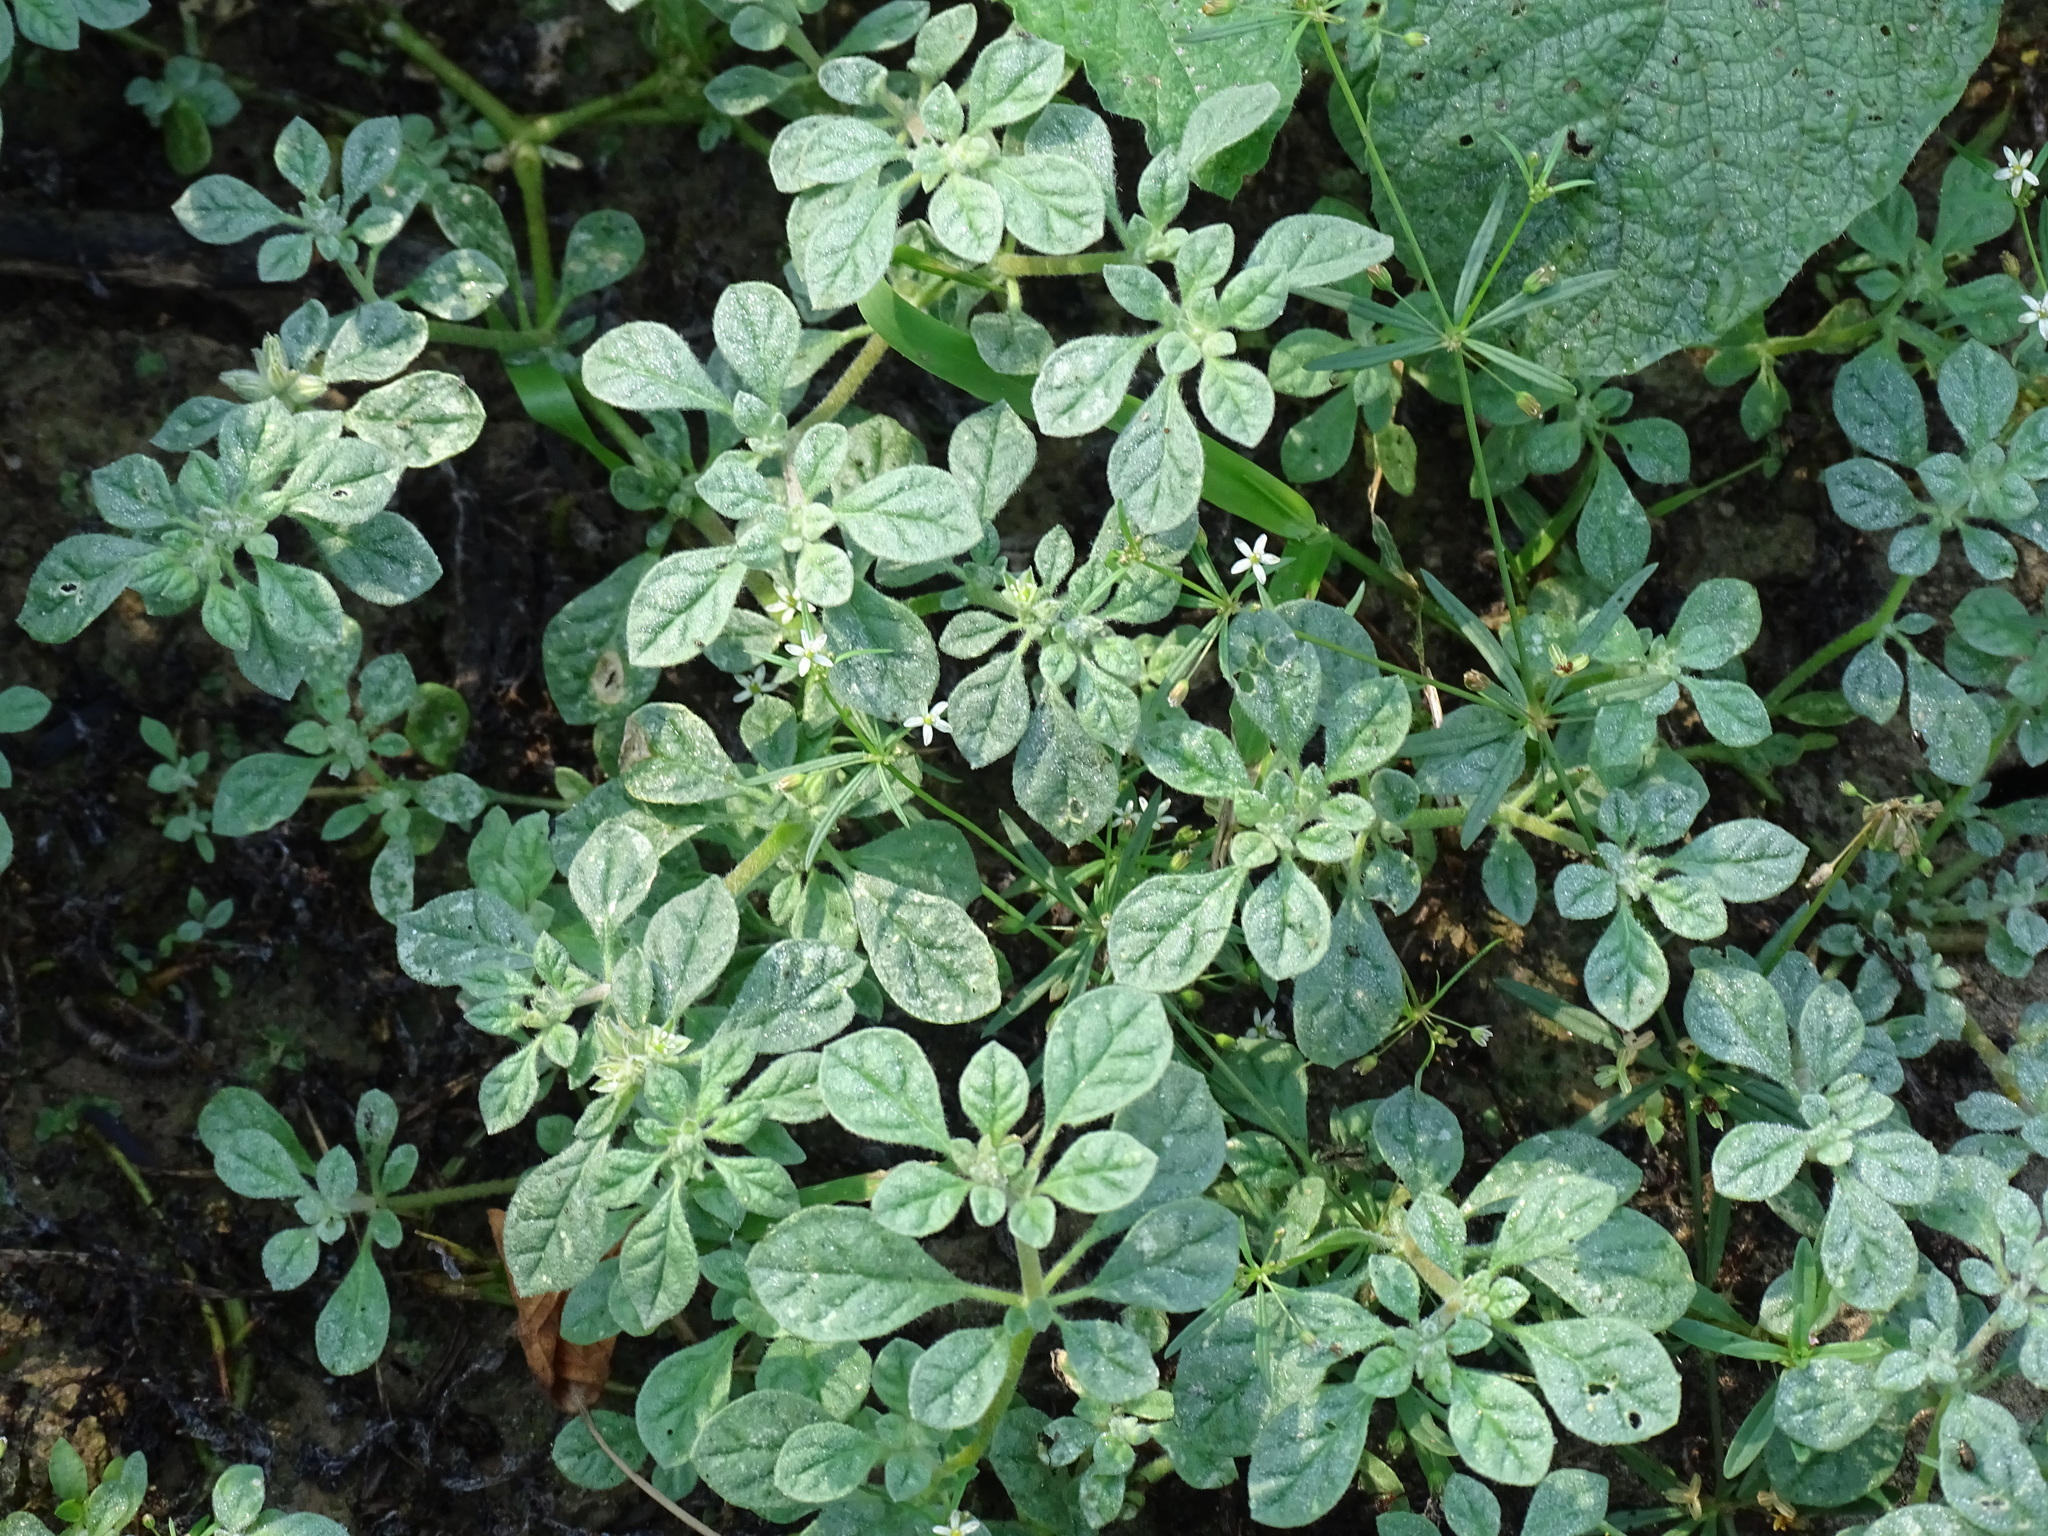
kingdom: Plantae
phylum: Tracheophyta
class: Magnoliopsida
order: Caryophyllales
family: Molluginaceae
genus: Glinus
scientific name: Glinus radiatus
